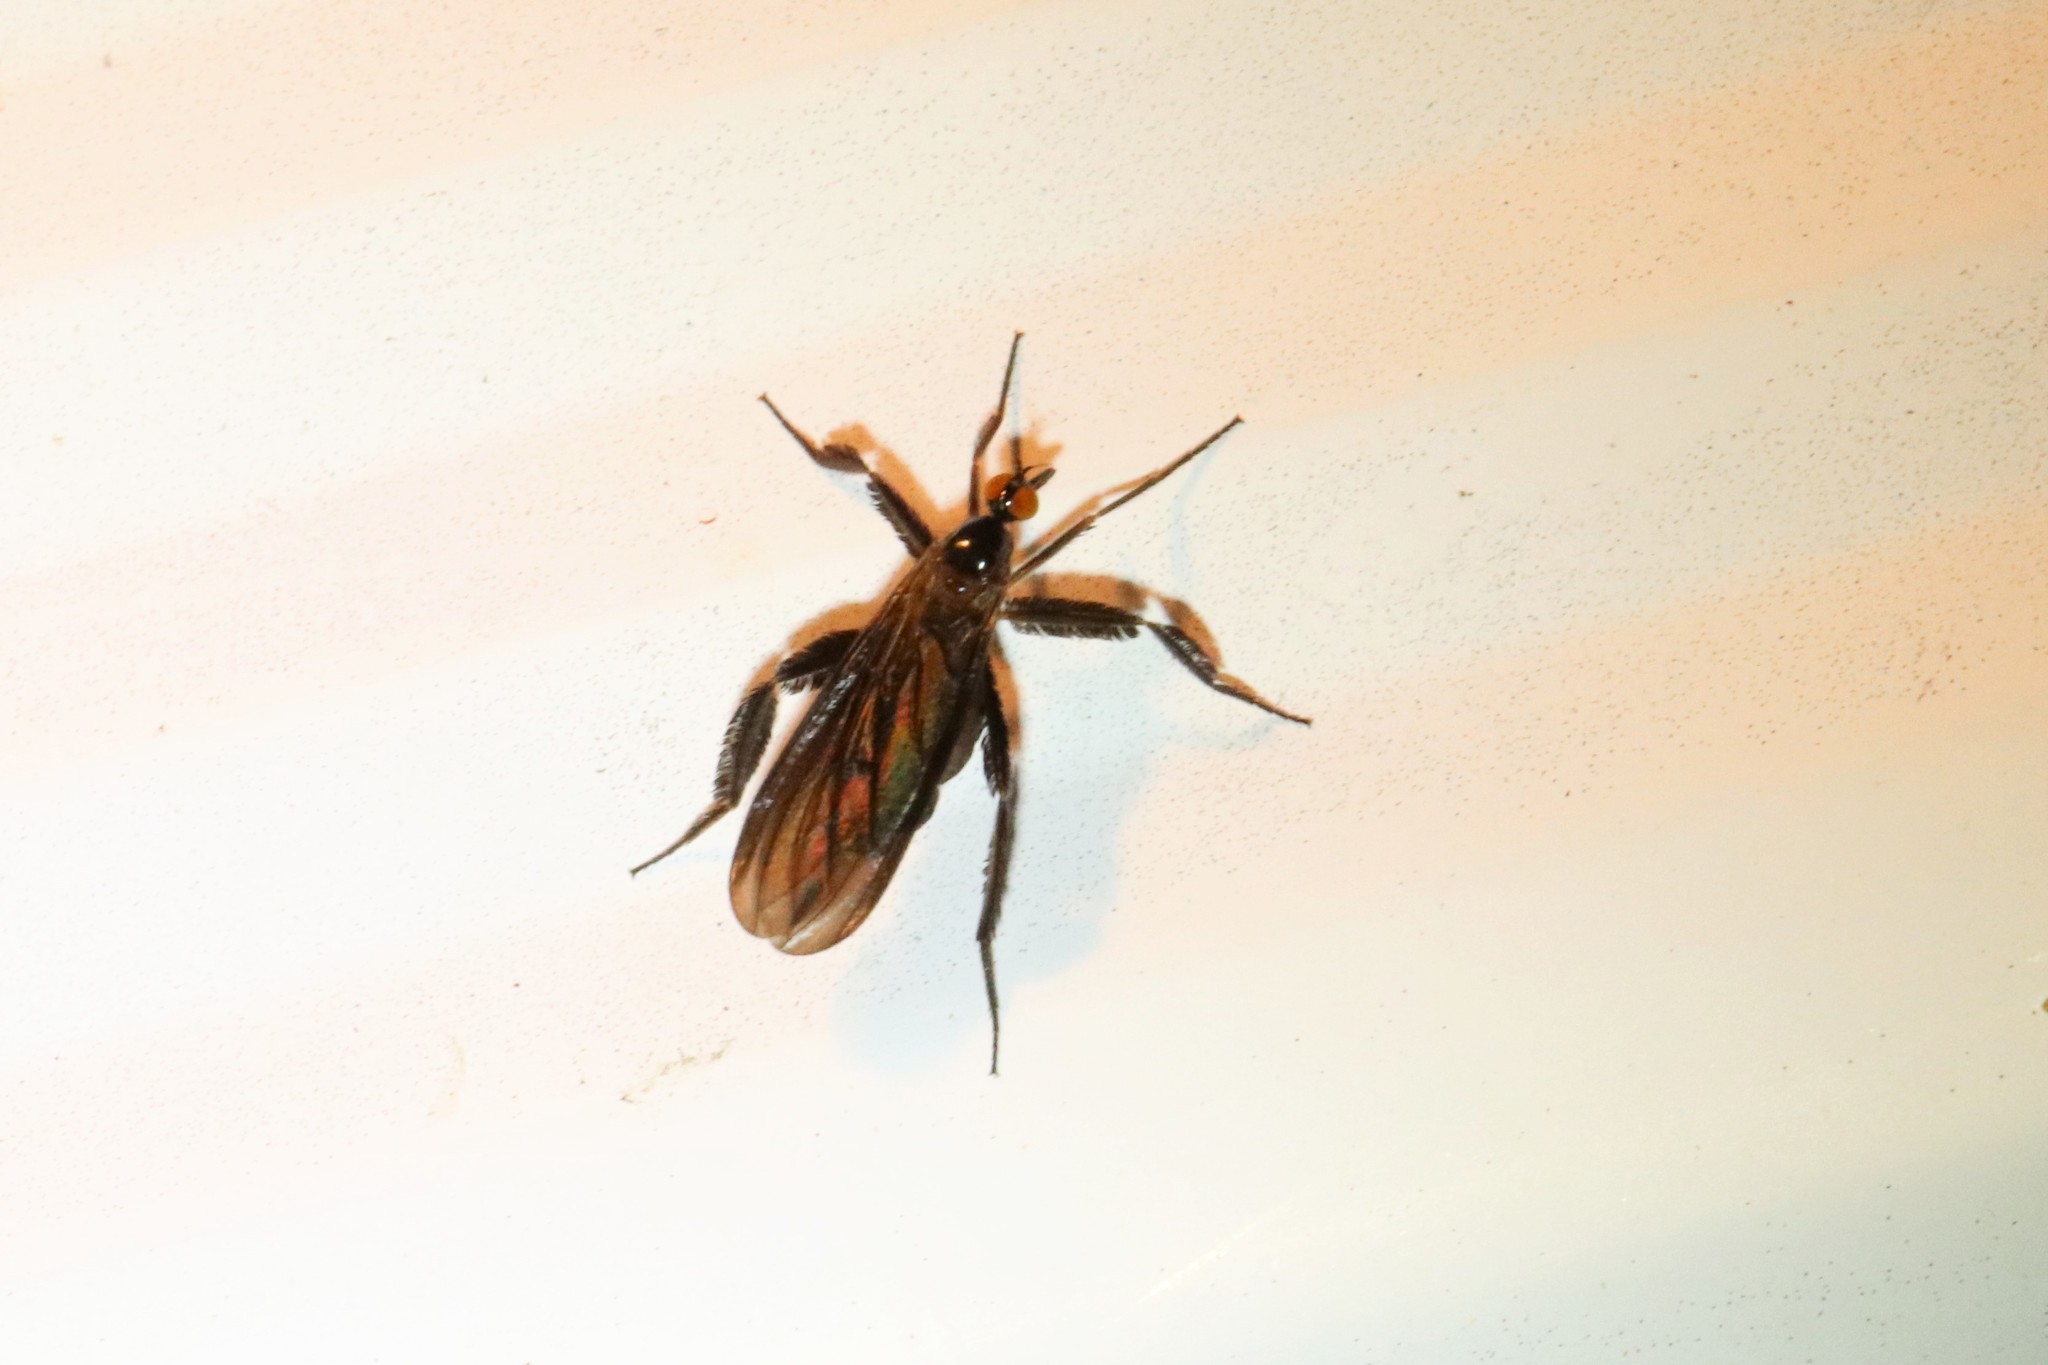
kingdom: Animalia
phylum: Arthropoda
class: Insecta
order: Diptera
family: Empididae
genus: Rhamphomyia
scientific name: Rhamphomyia longicauda
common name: Long-tailed dance fly
